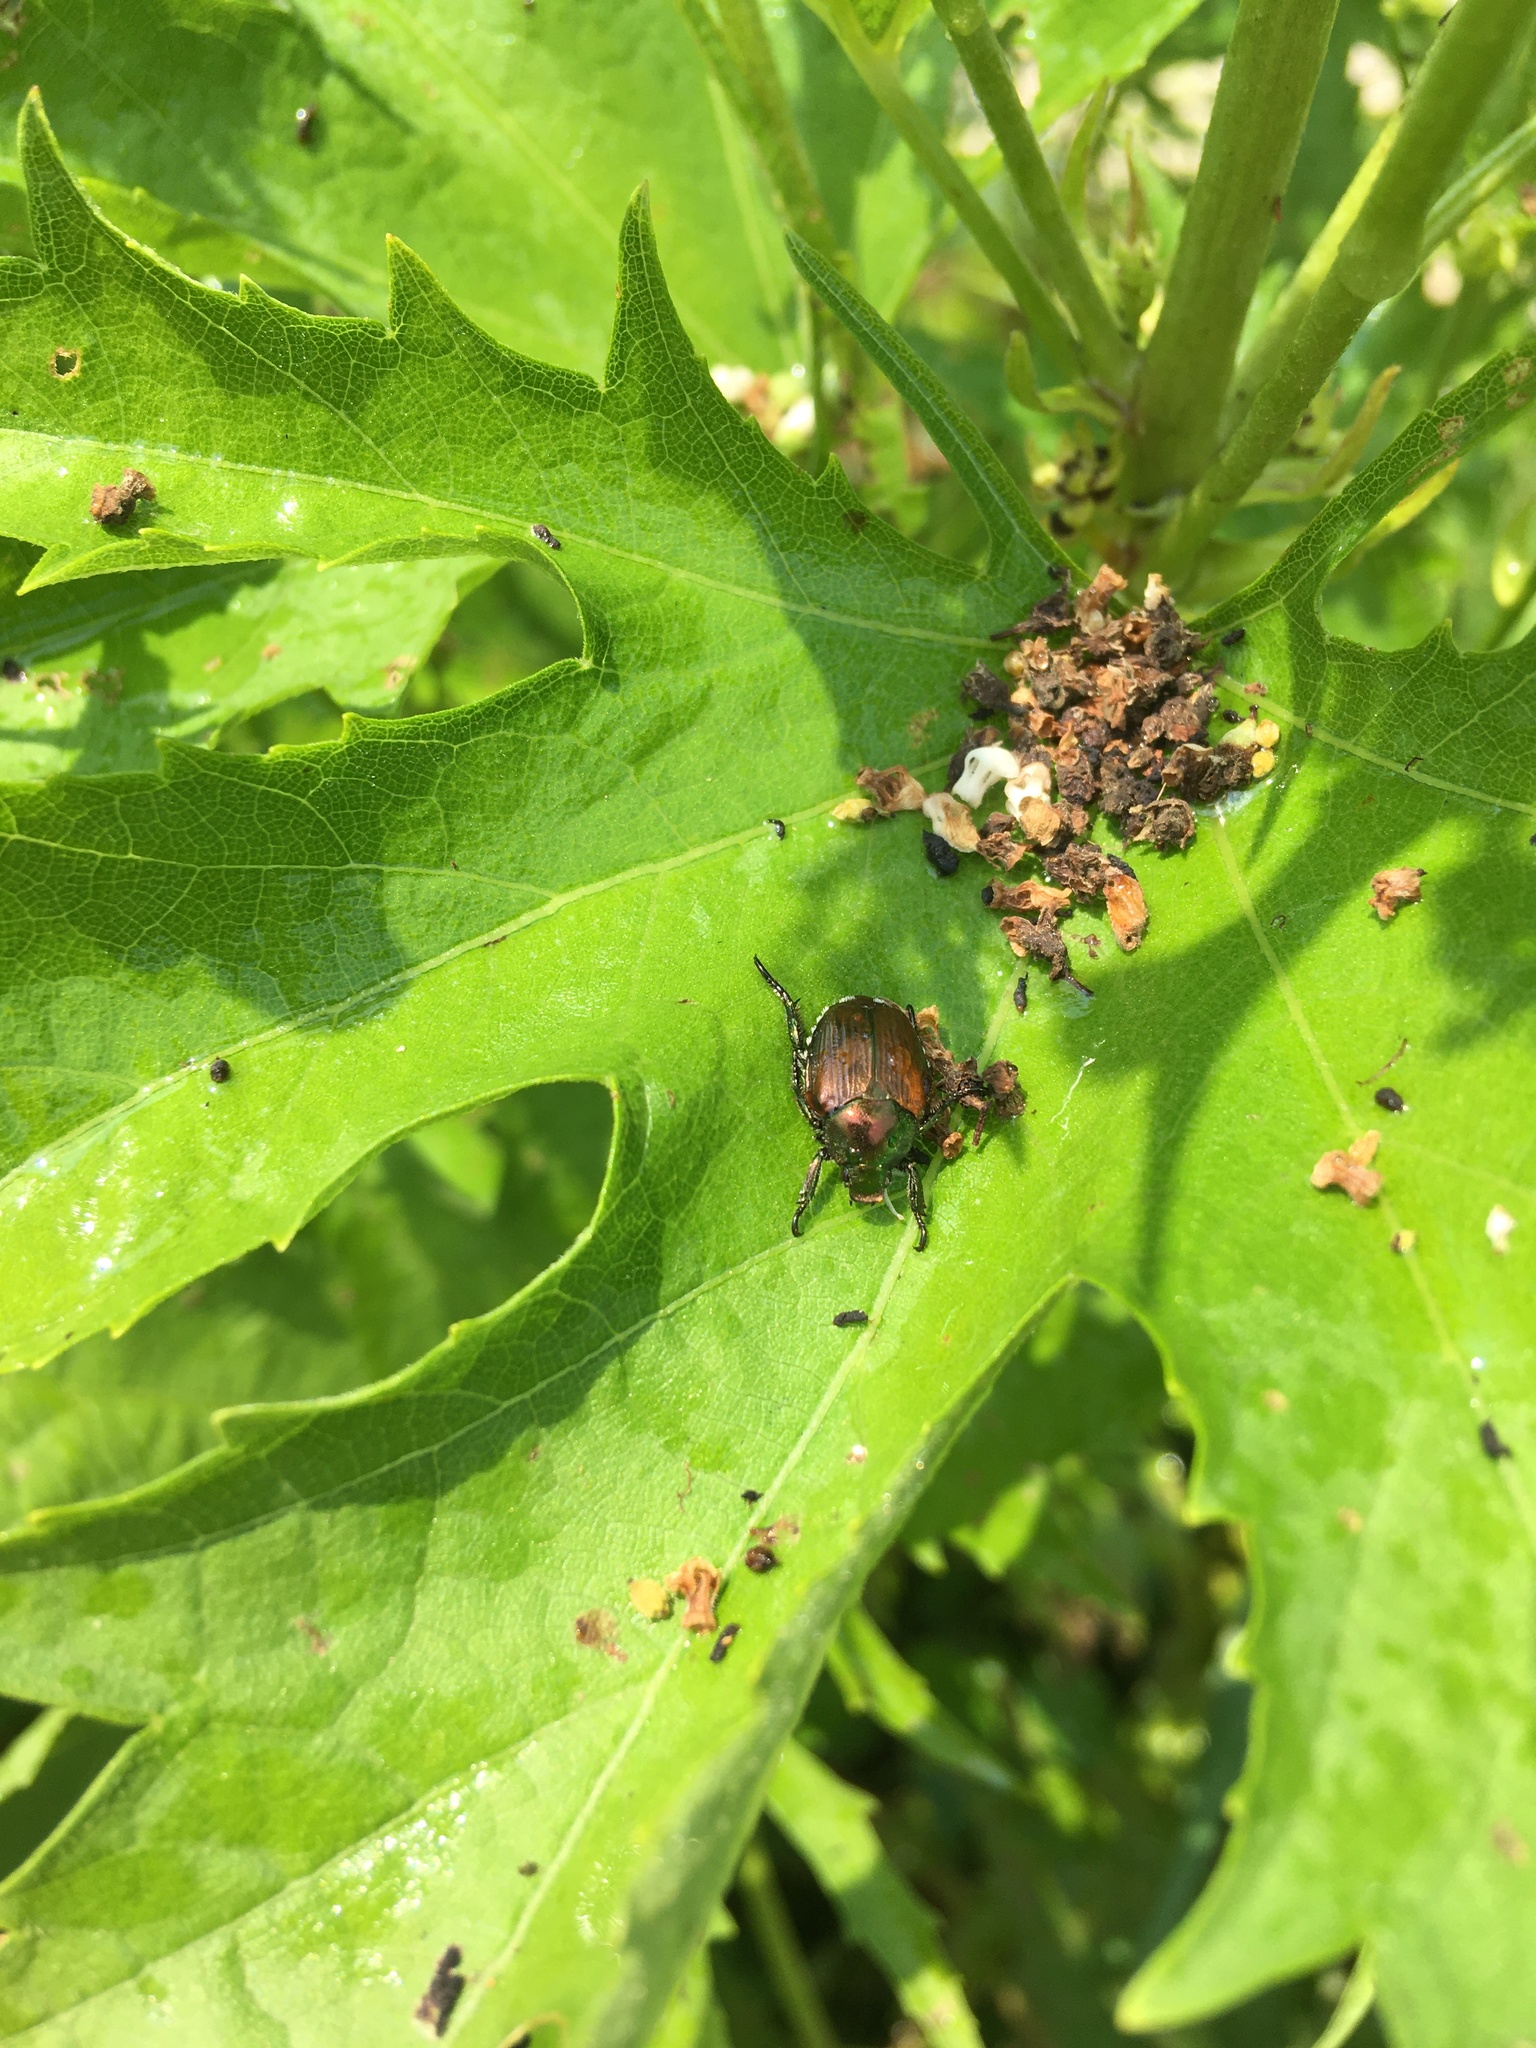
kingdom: Animalia
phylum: Arthropoda
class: Insecta
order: Coleoptera
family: Scarabaeidae
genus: Popillia
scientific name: Popillia japonica
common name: Japanese beetle
